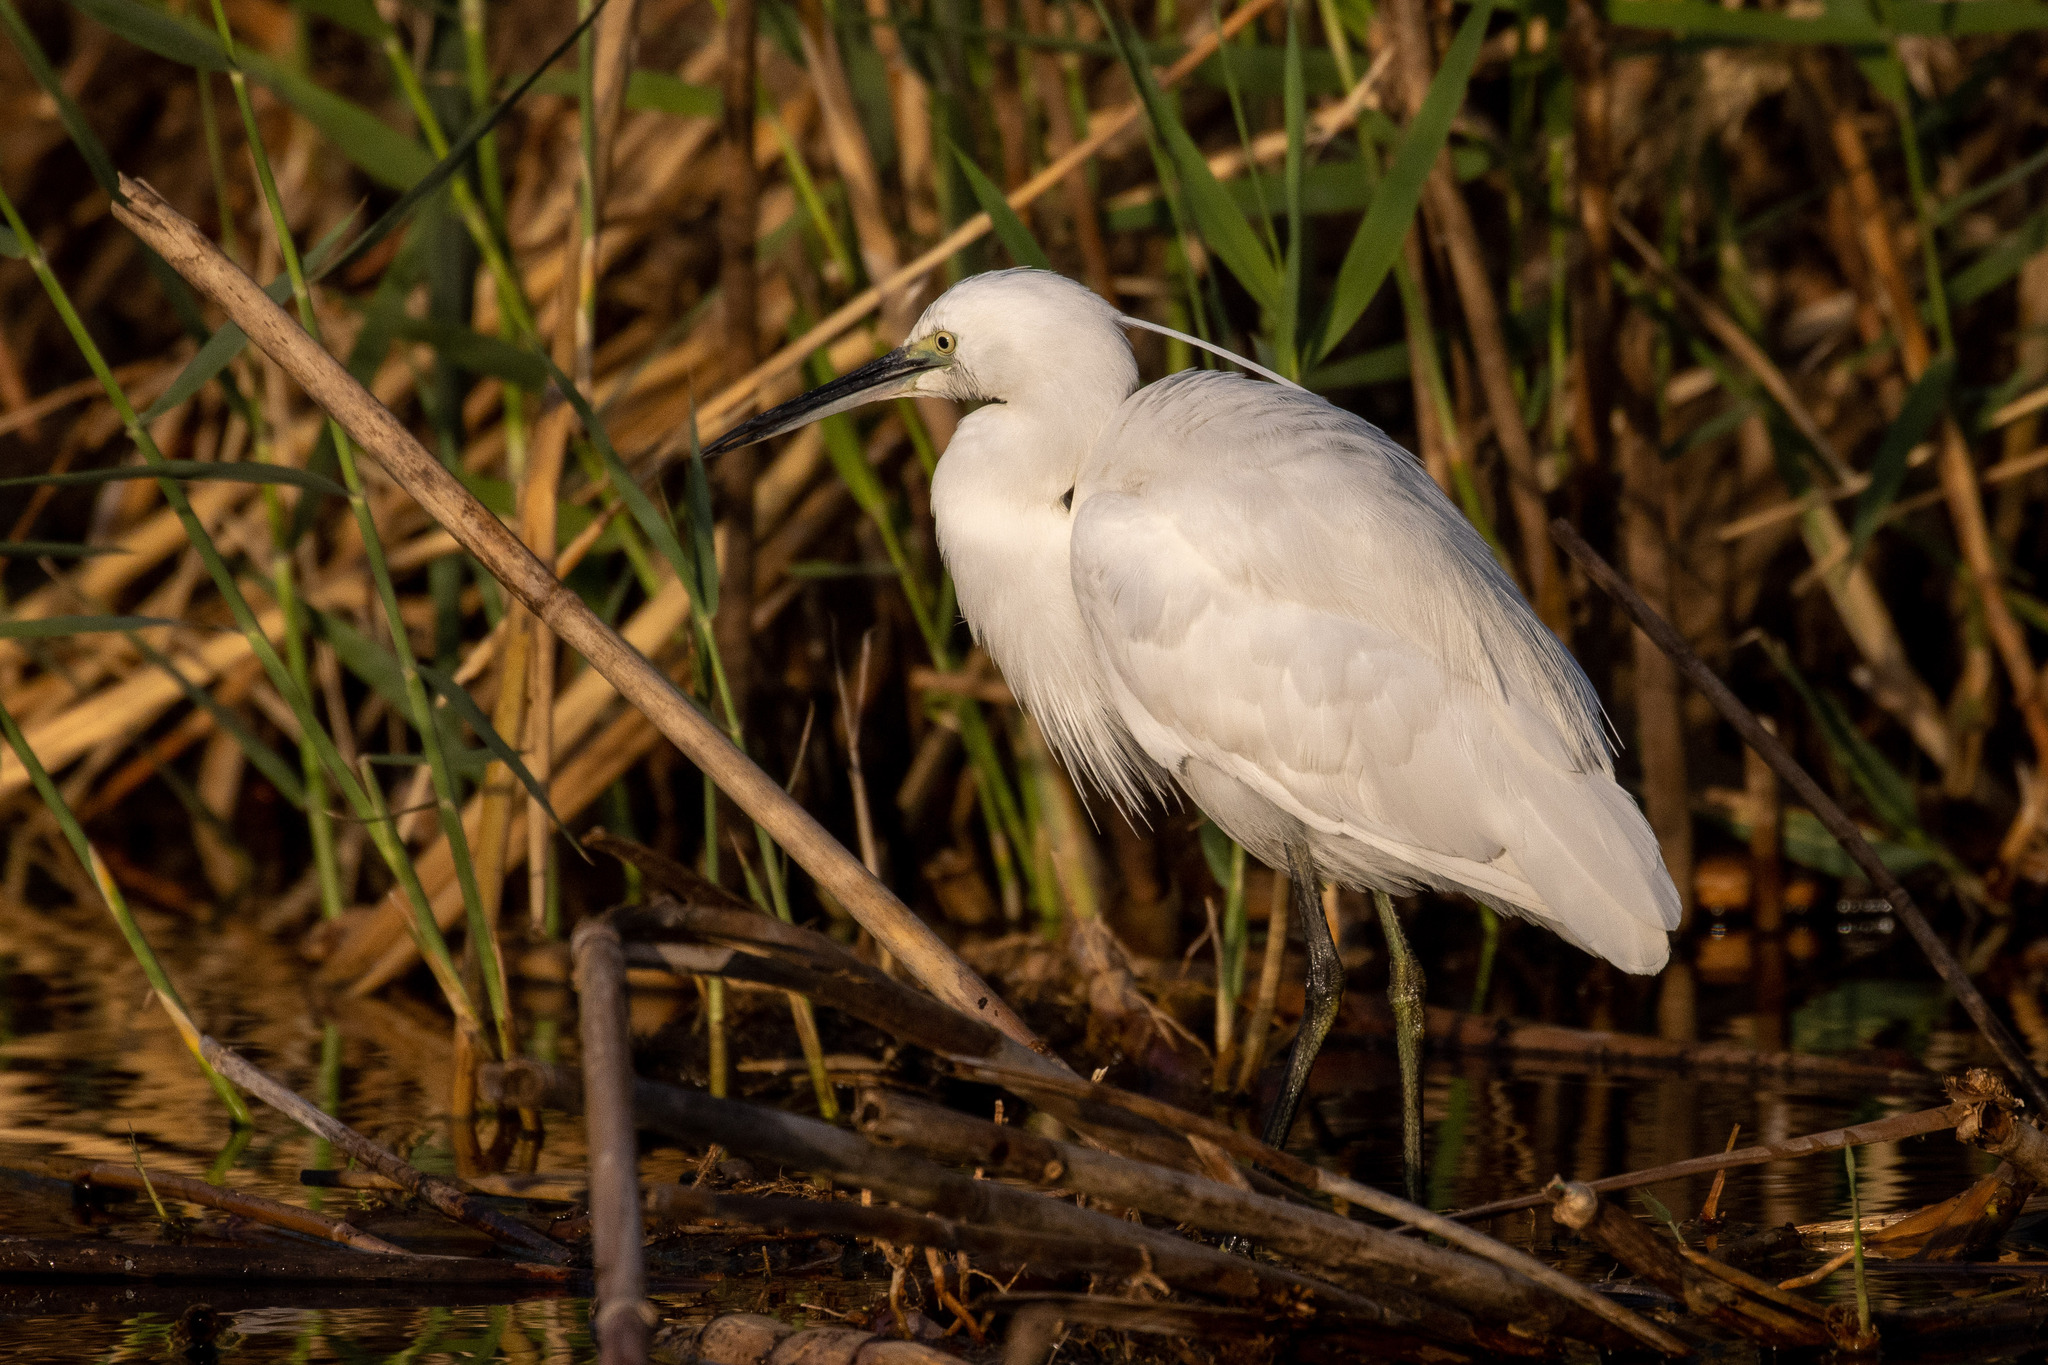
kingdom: Animalia
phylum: Chordata
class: Aves
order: Pelecaniformes
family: Ardeidae
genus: Egretta
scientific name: Egretta garzetta
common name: Little egret
